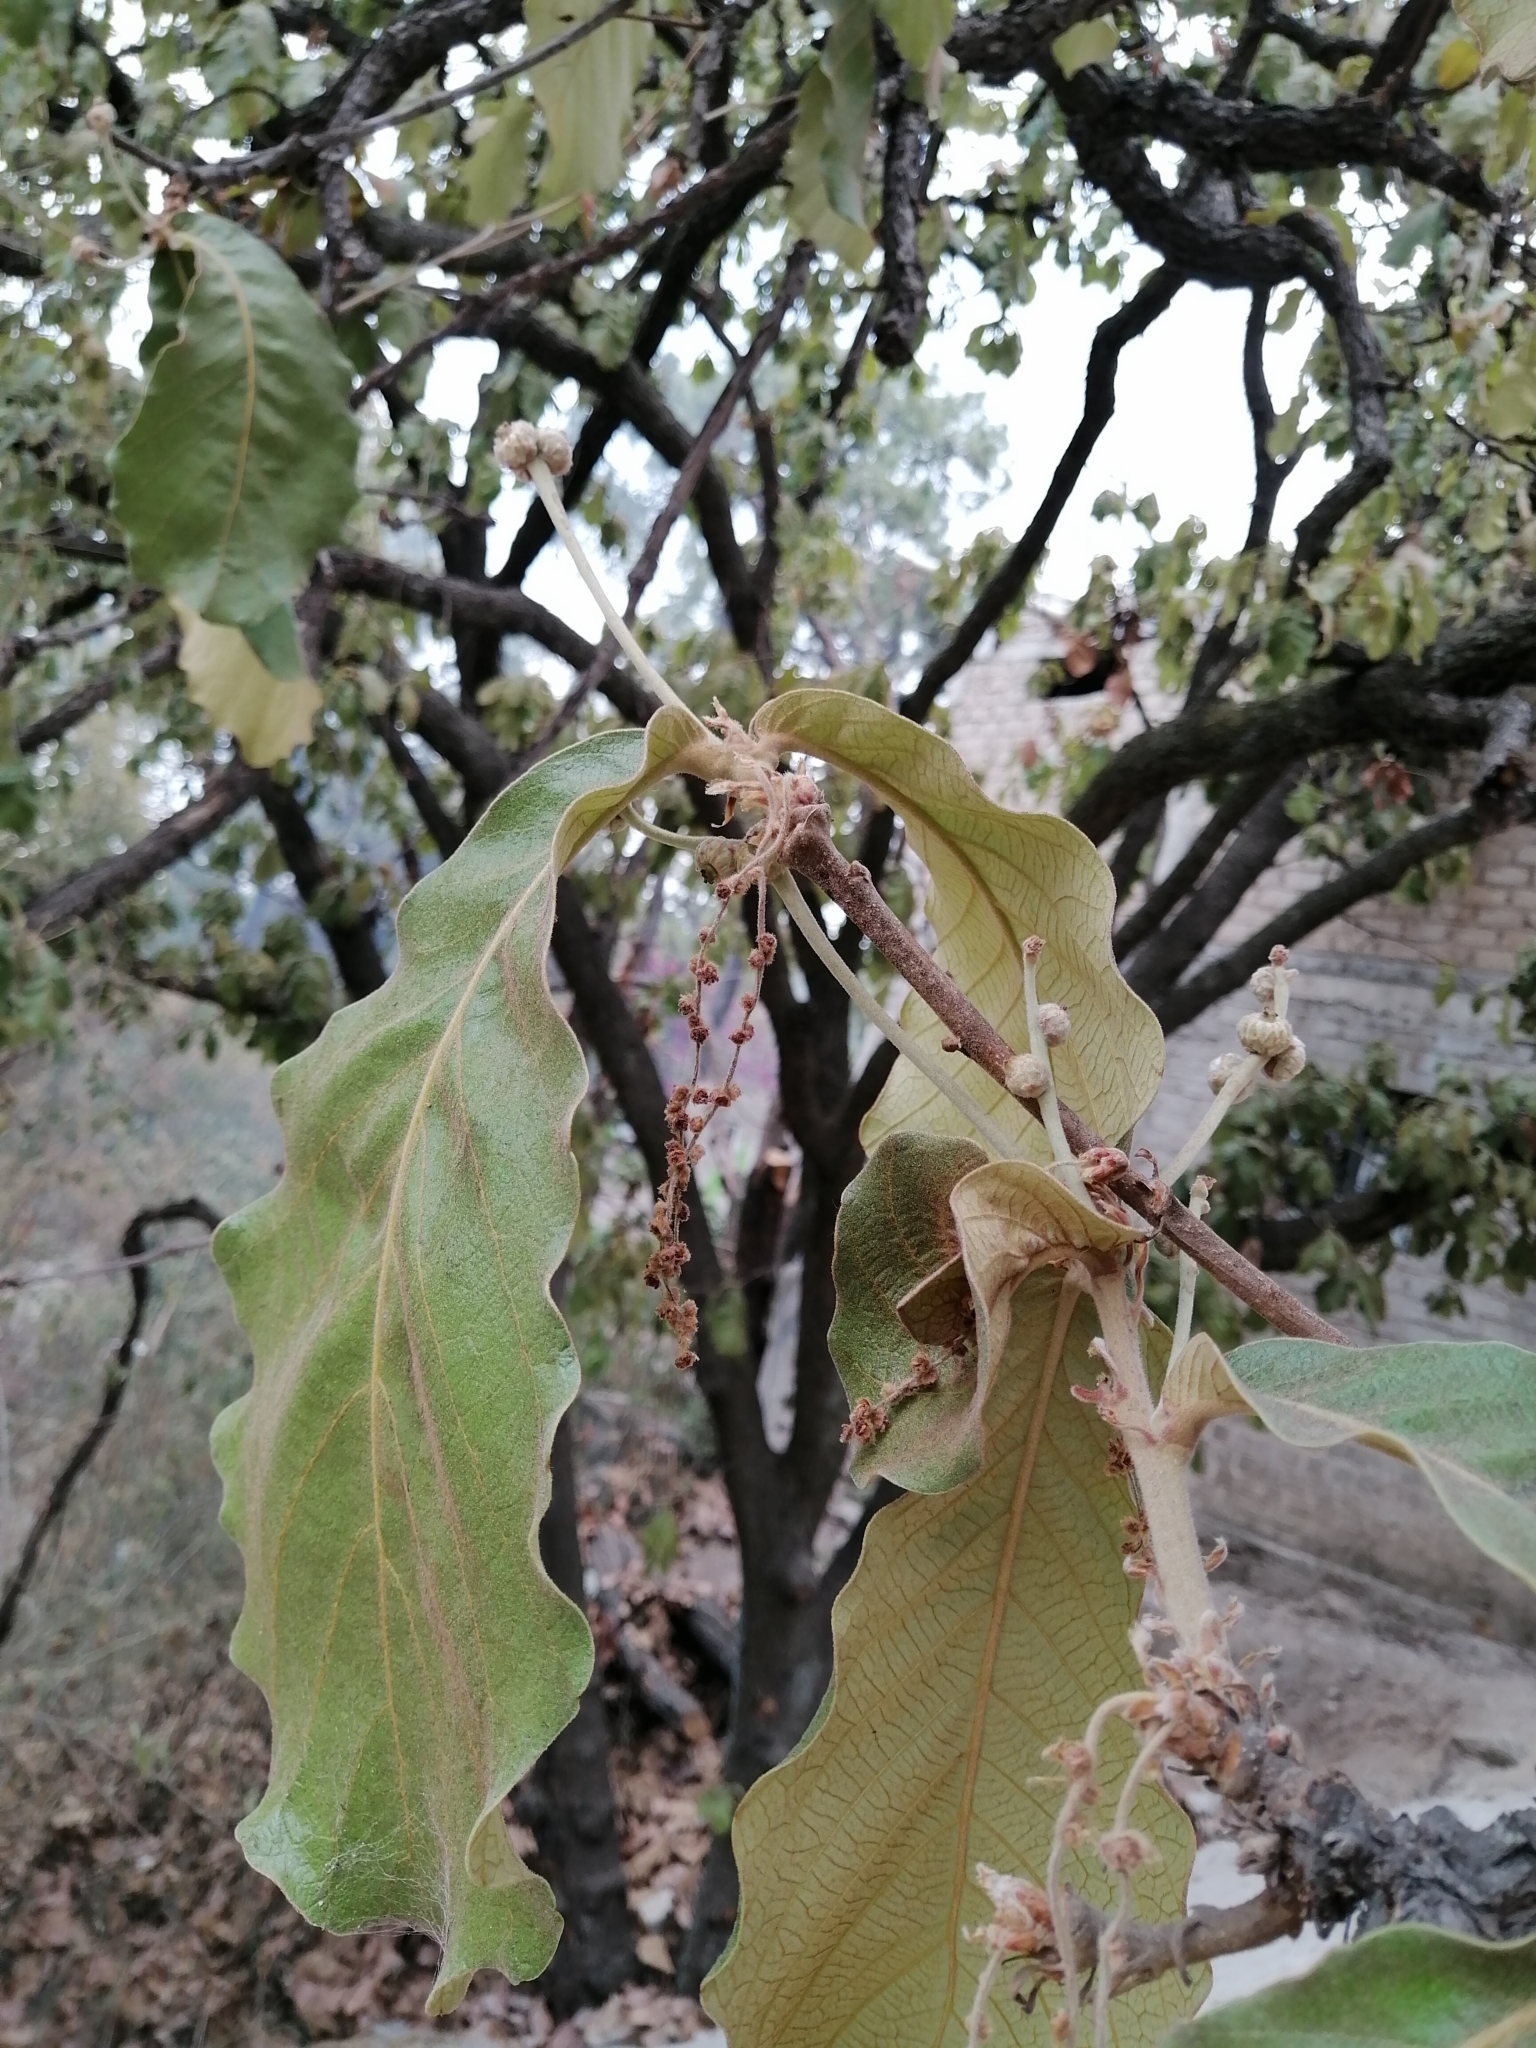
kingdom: Plantae
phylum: Tracheophyta
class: Magnoliopsida
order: Fagales
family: Fagaceae
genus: Quercus
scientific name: Quercus resinosa
